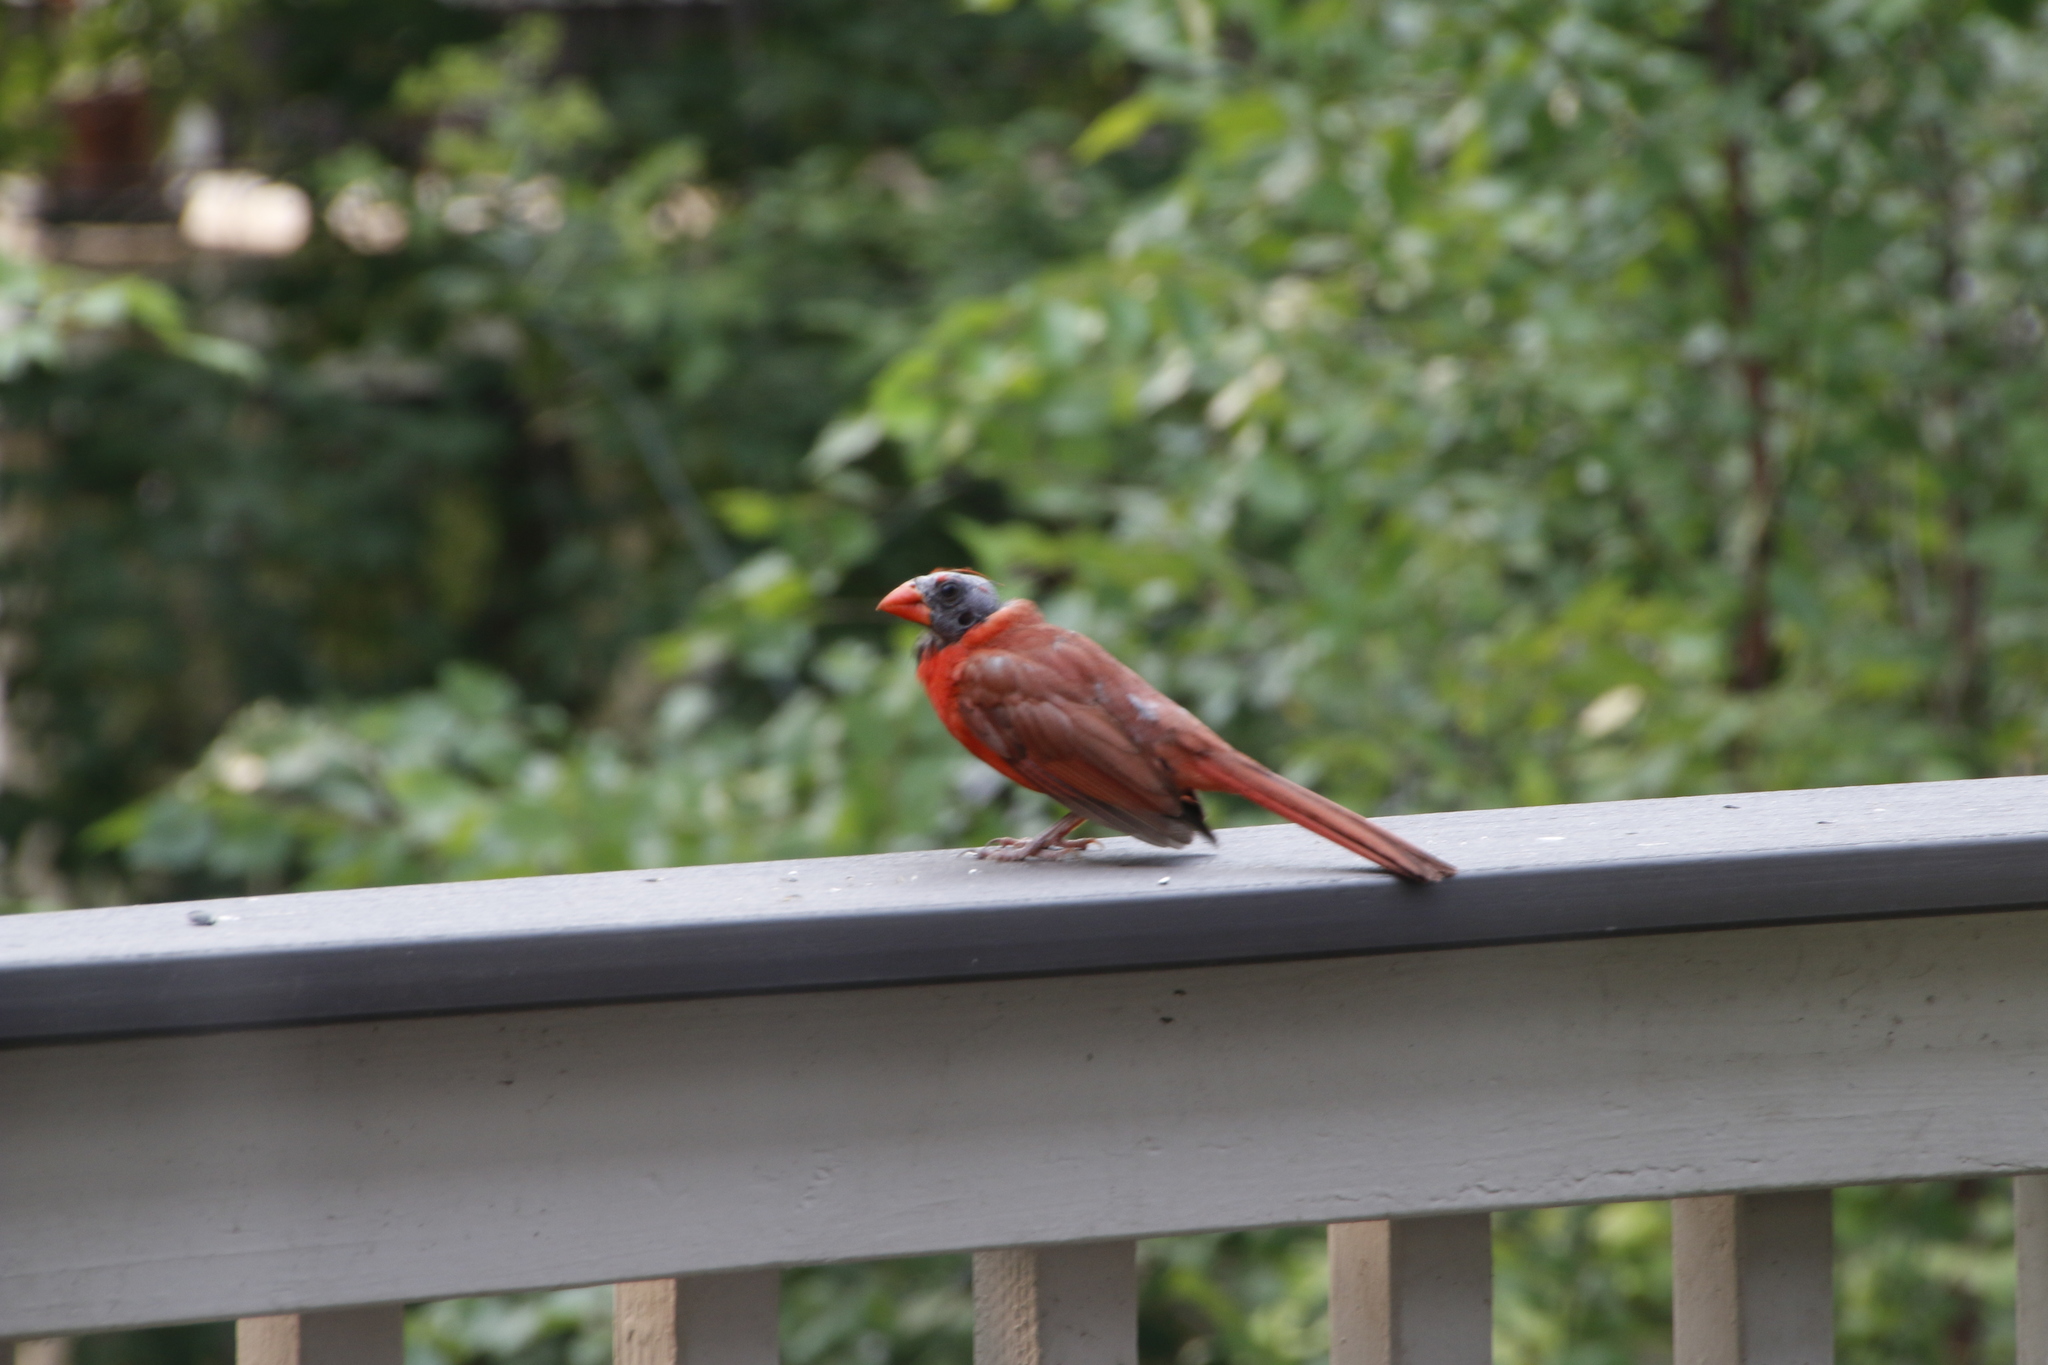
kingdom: Animalia
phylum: Chordata
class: Aves
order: Passeriformes
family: Cardinalidae
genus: Cardinalis
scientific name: Cardinalis cardinalis
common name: Northern cardinal
